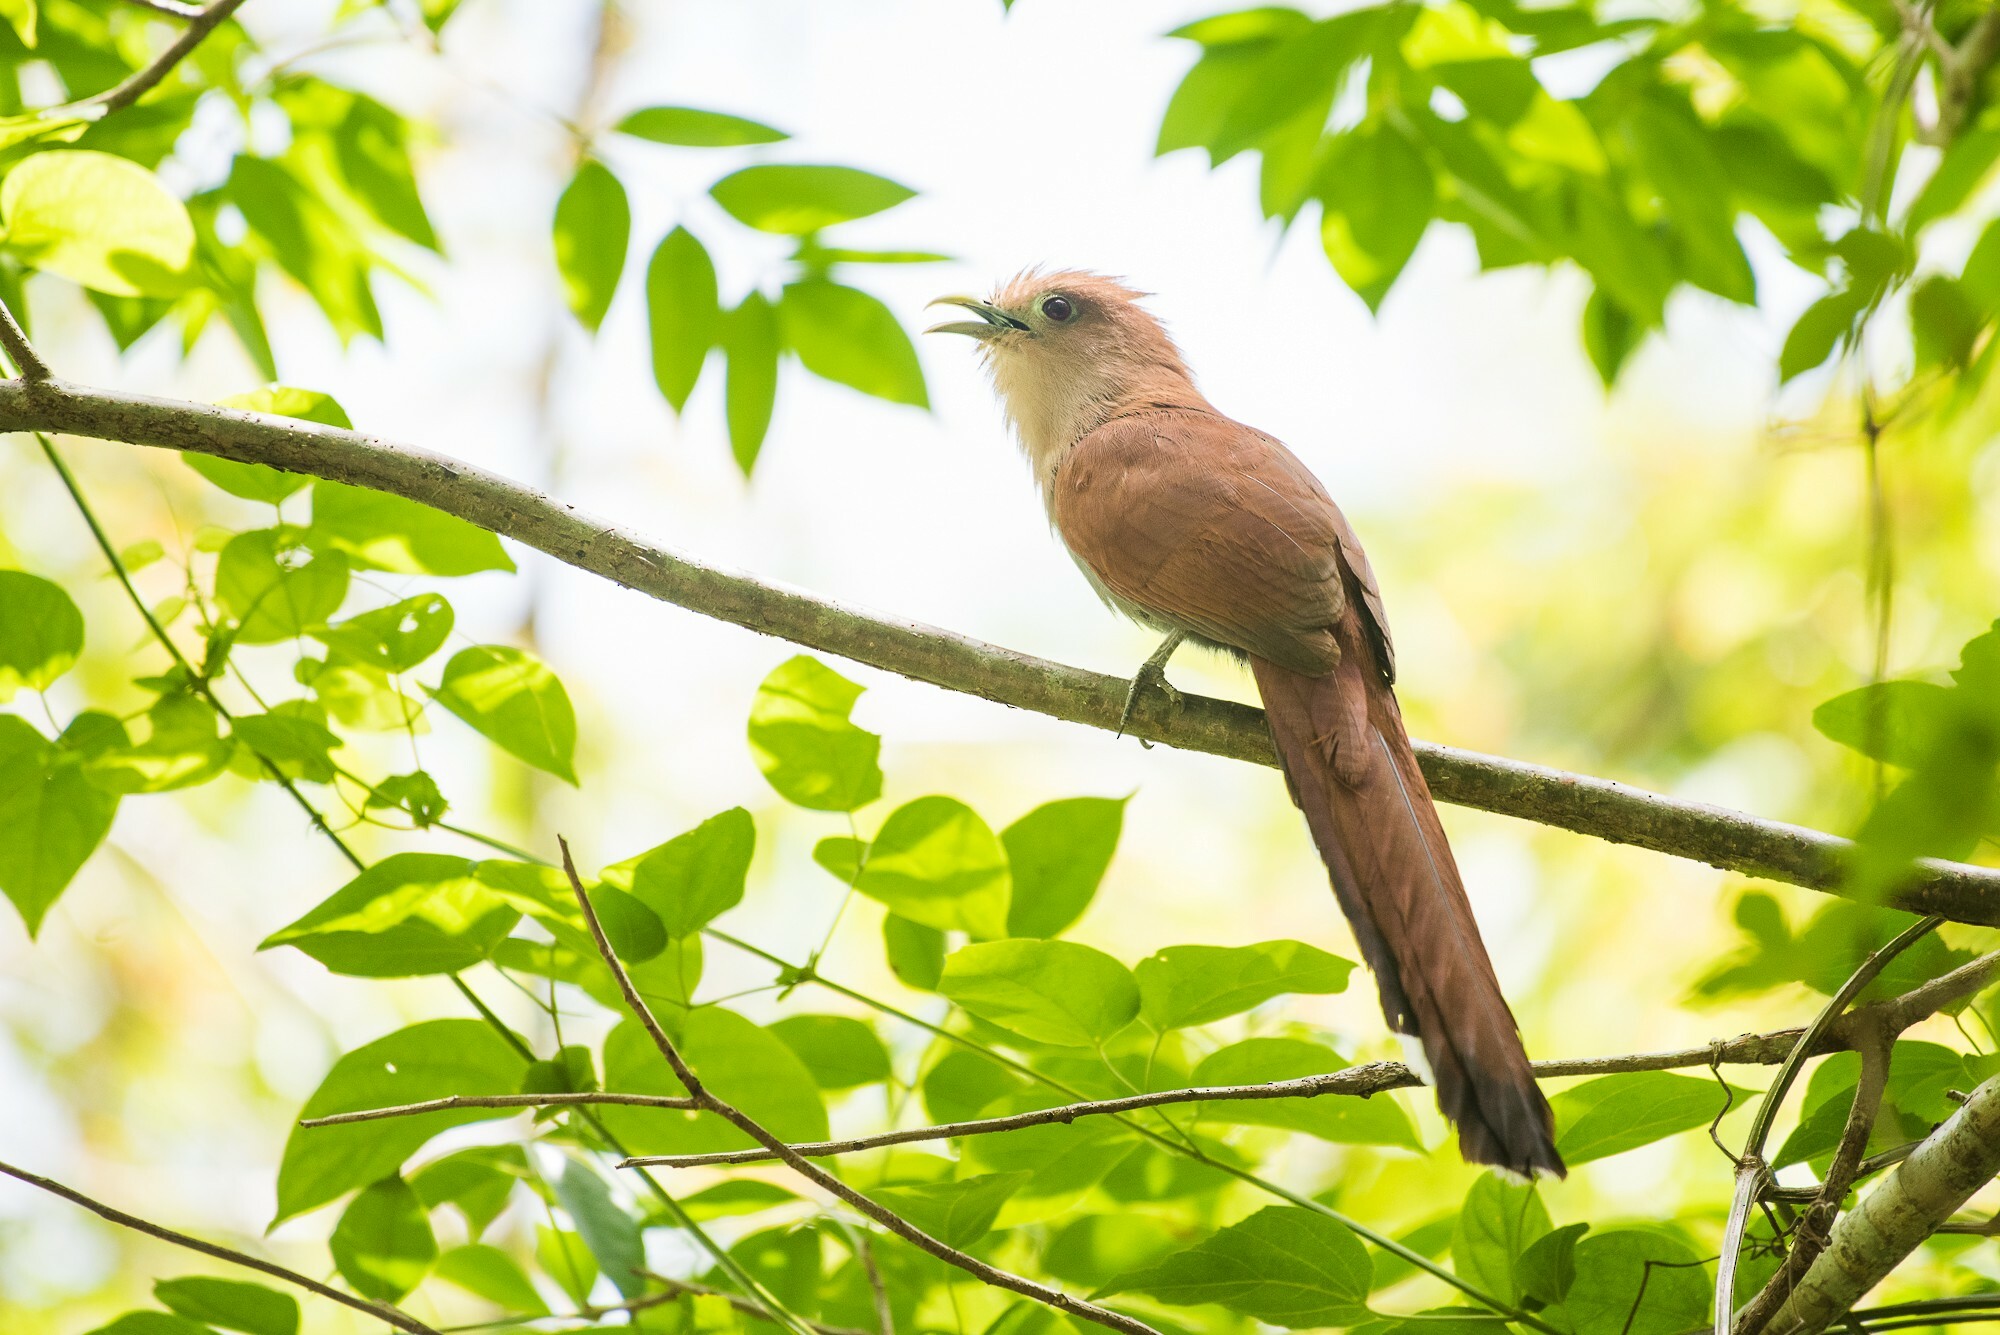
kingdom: Animalia
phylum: Chordata
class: Aves
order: Cuculiformes
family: Cuculidae
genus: Piaya
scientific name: Piaya cayana
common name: Squirrel cuckoo
